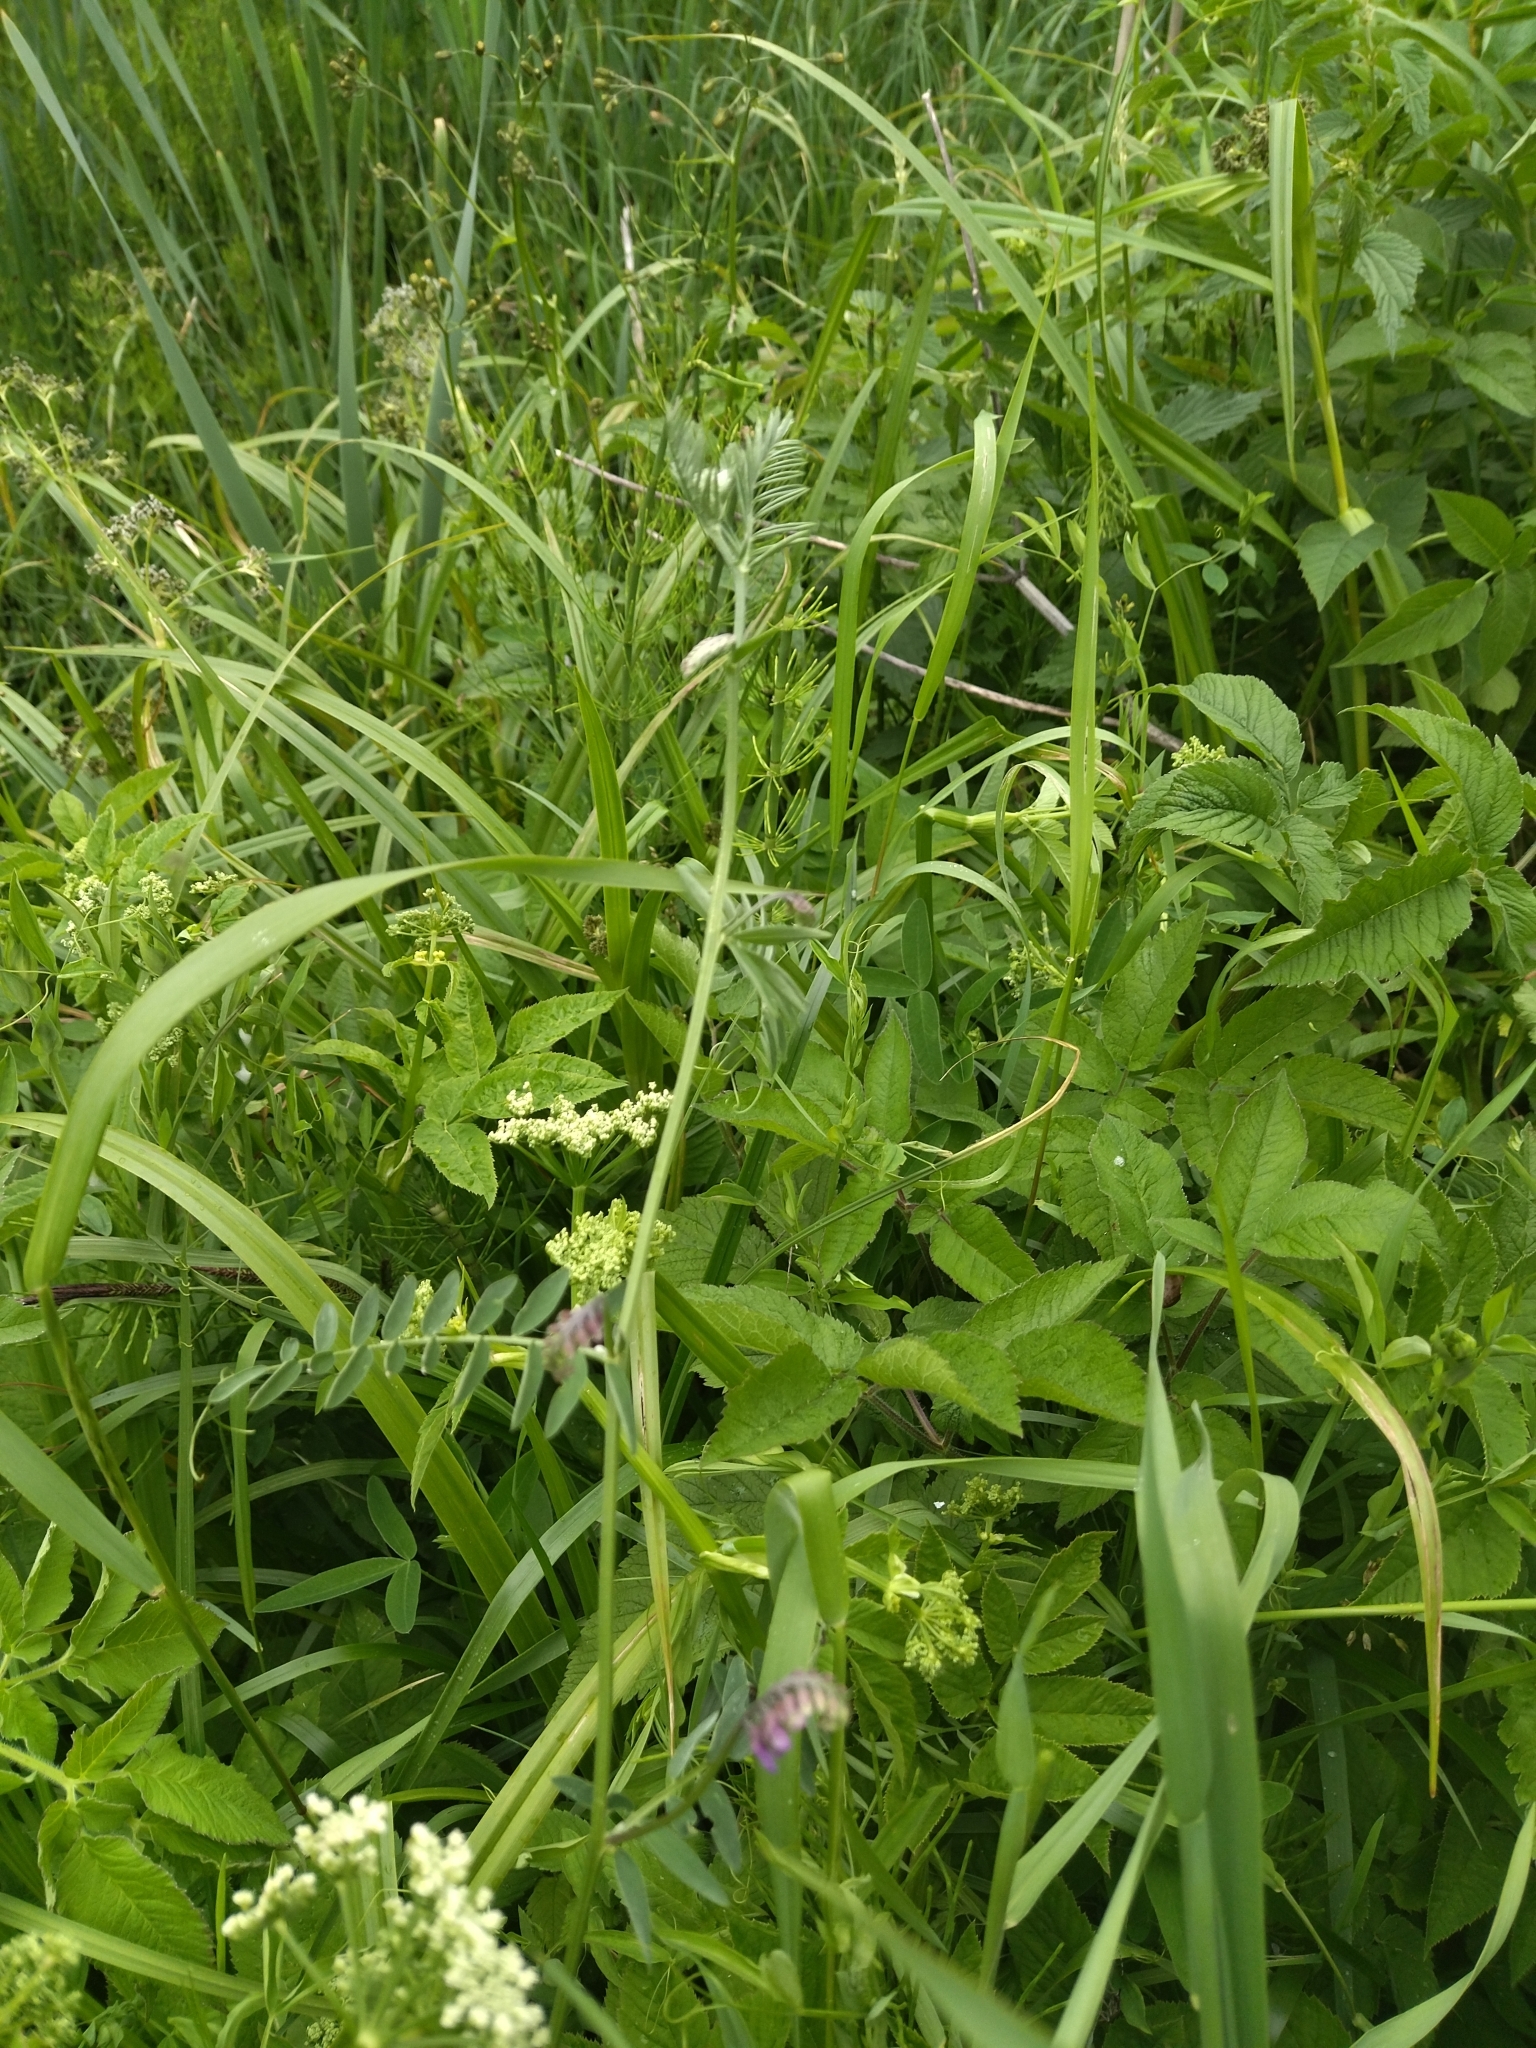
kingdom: Plantae
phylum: Tracheophyta
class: Magnoliopsida
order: Fabales
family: Fabaceae
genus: Vicia
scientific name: Vicia cracca
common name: Bird vetch
